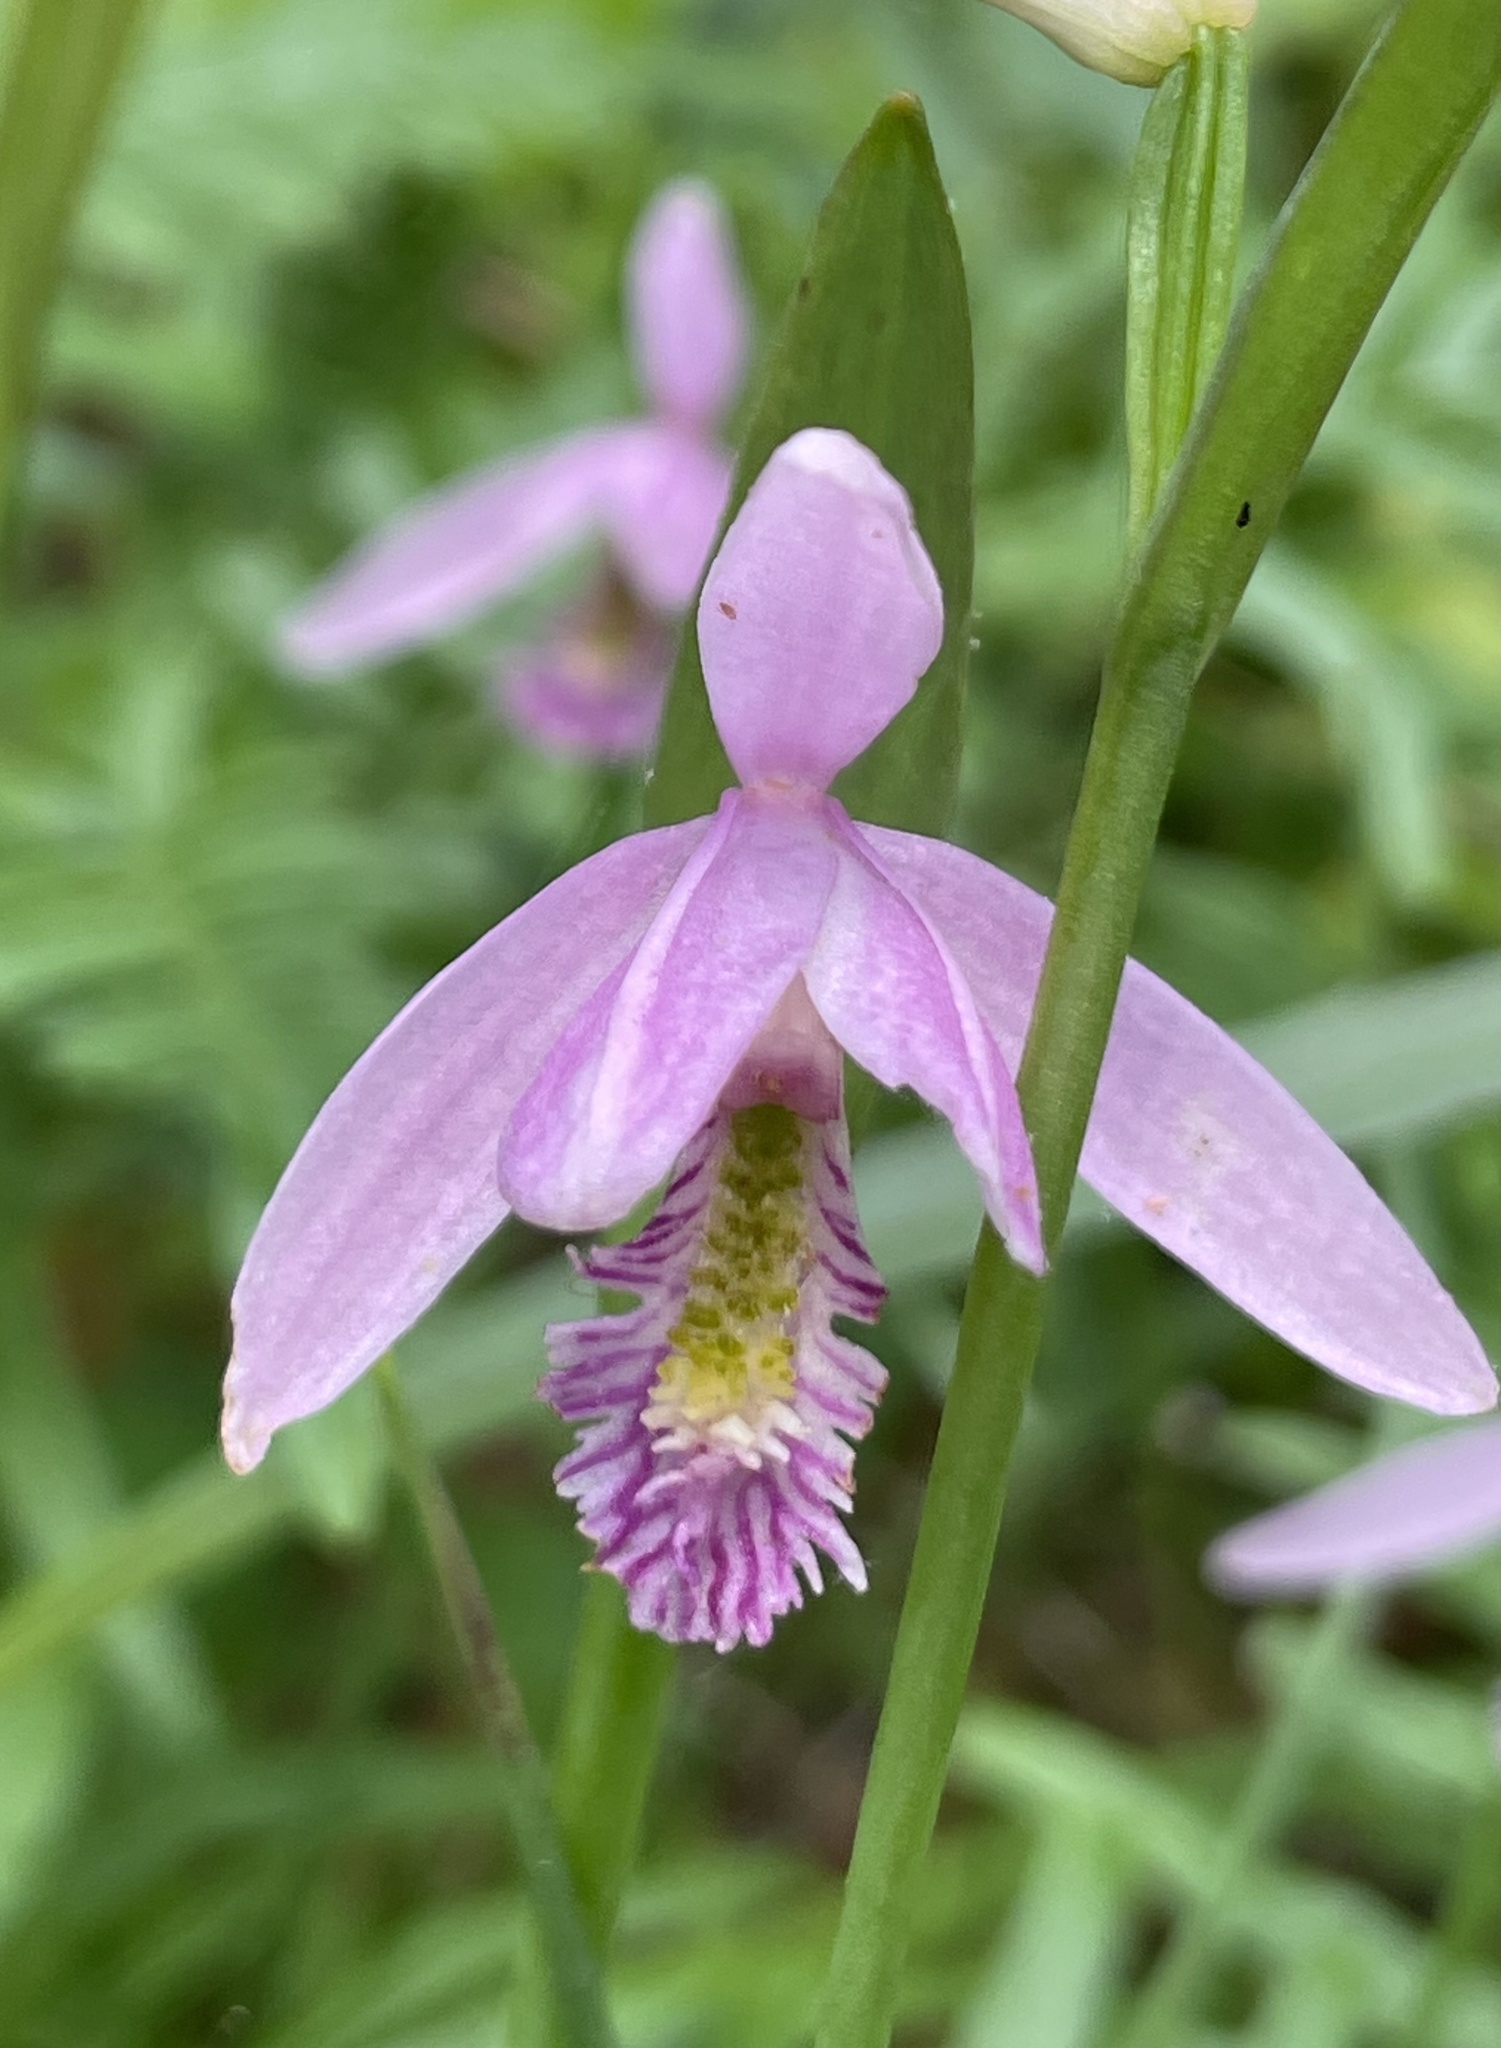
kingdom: Plantae
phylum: Tracheophyta
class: Liliopsida
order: Asparagales
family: Orchidaceae
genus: Pogonia
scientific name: Pogonia ophioglossoides
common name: Rose pogonia
